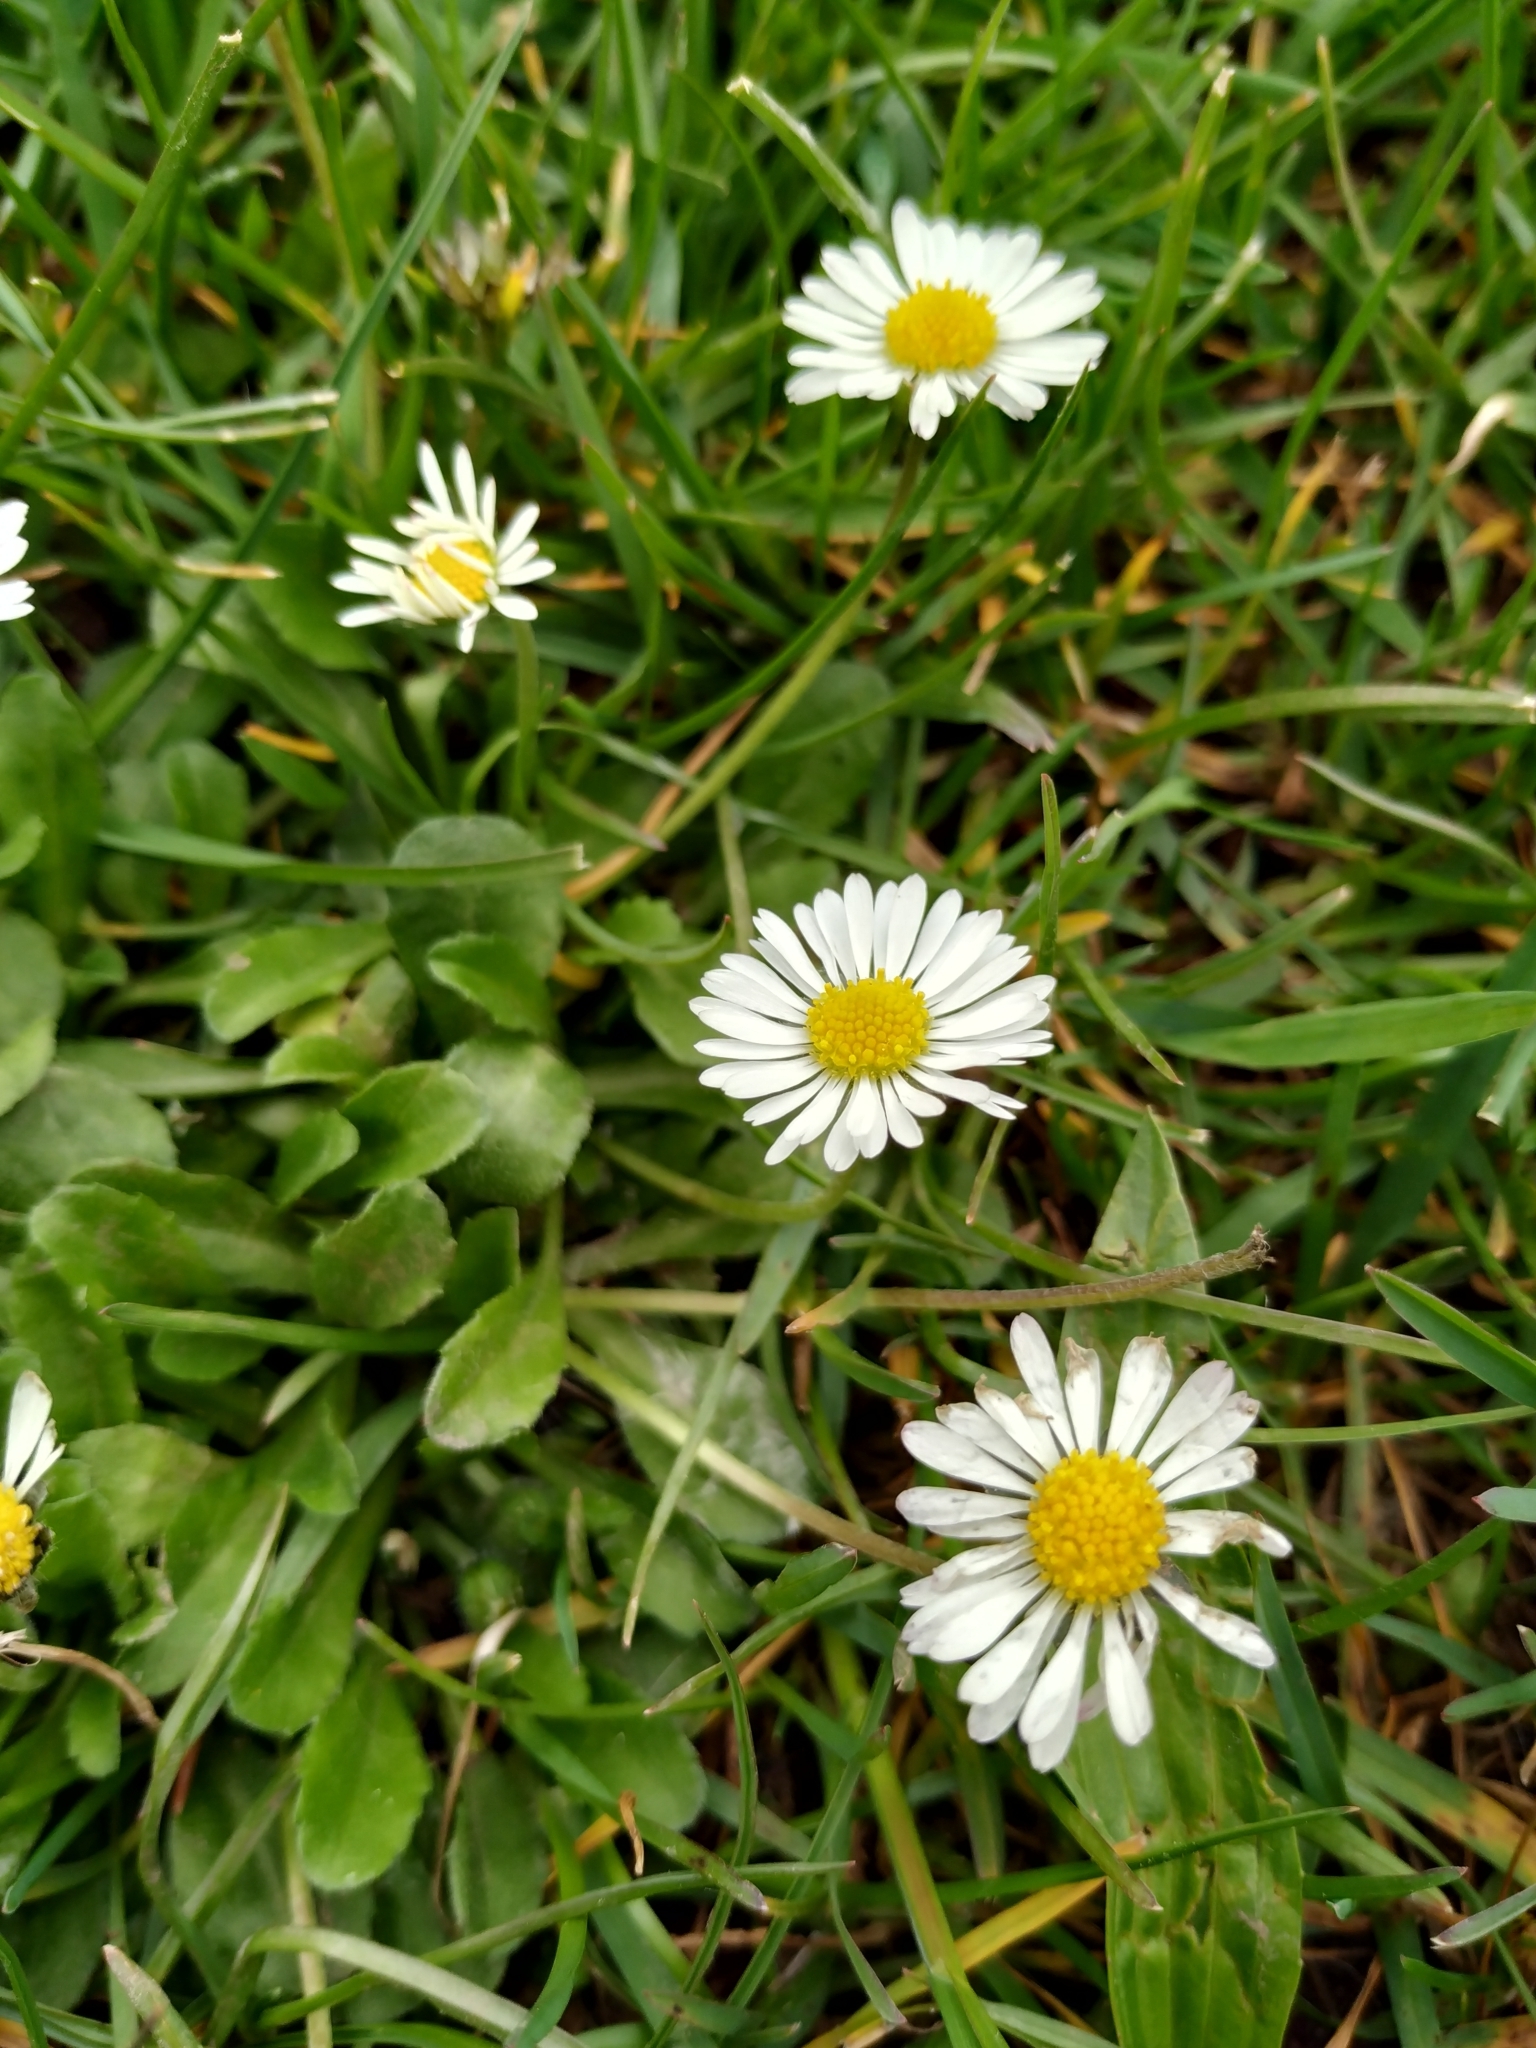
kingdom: Plantae
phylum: Tracheophyta
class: Magnoliopsida
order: Asterales
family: Asteraceae
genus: Bellis
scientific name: Bellis perennis
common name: Lawndaisy
